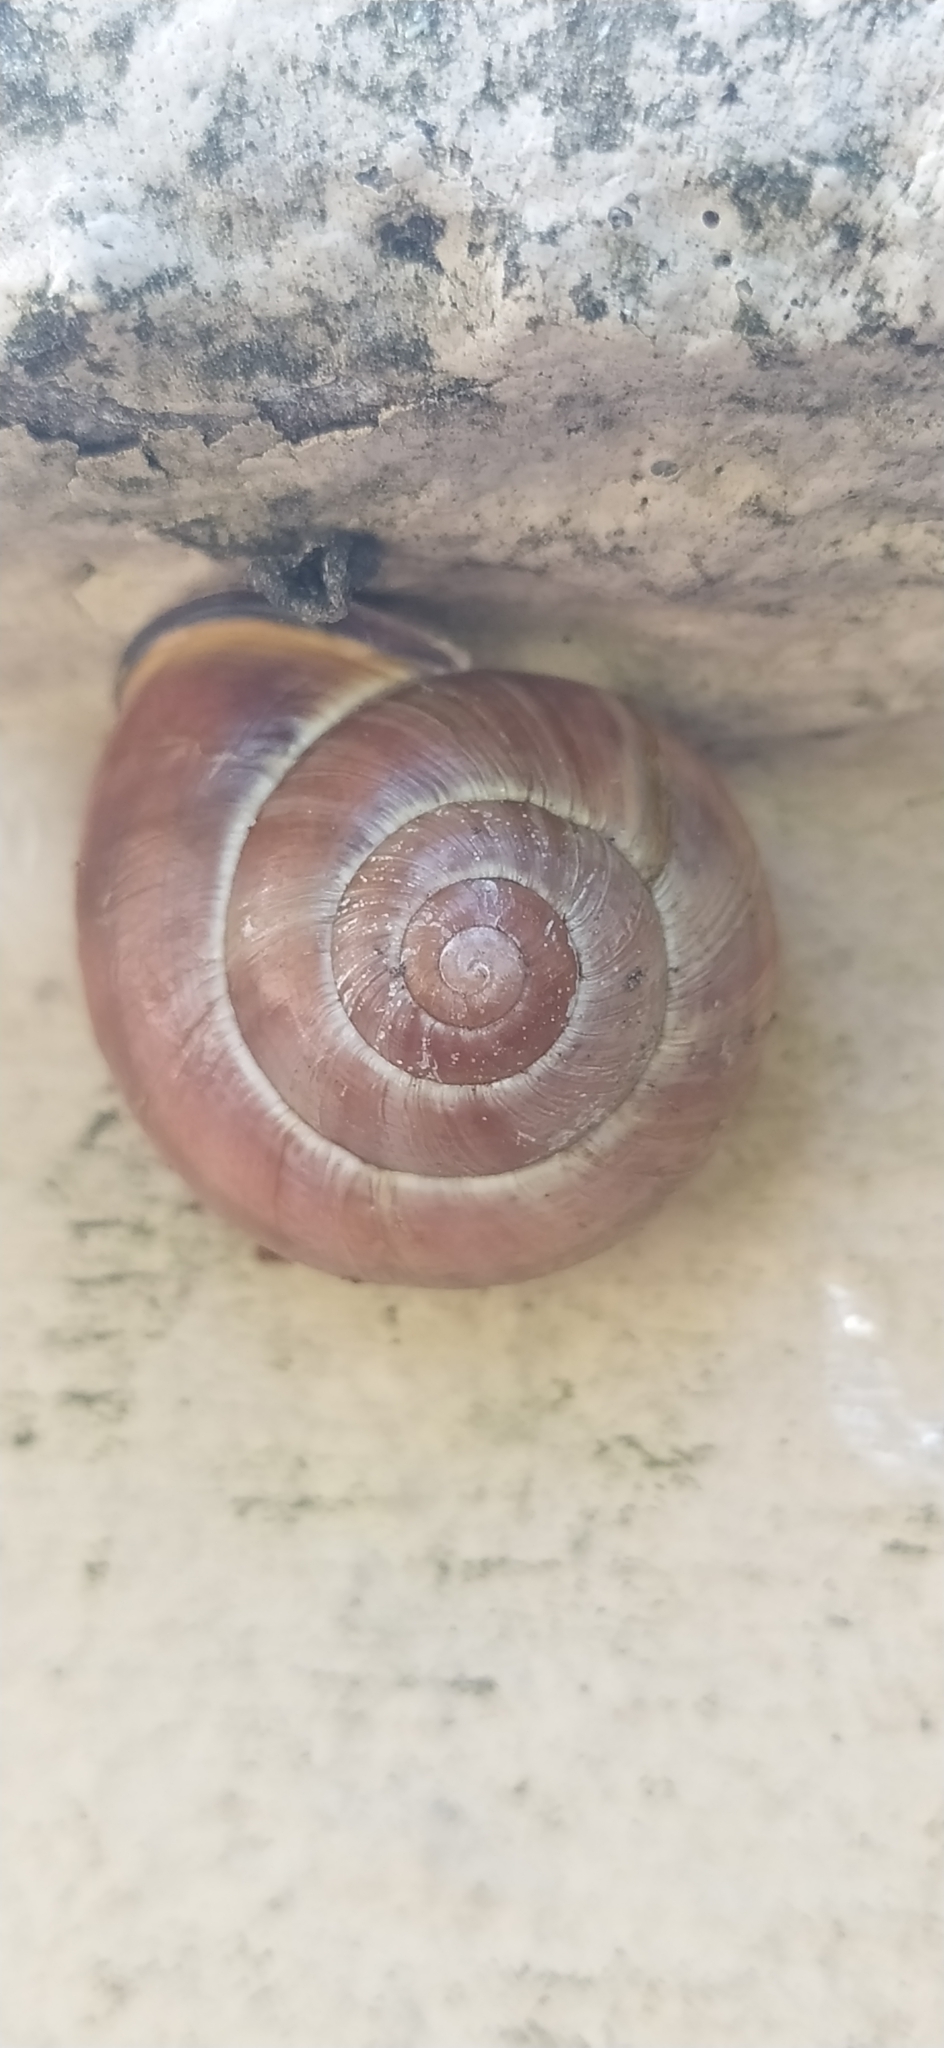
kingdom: Animalia
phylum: Mollusca
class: Gastropoda
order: Stylommatophora
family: Helicidae
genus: Cepaea
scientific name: Cepaea nemoralis
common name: Grovesnail
